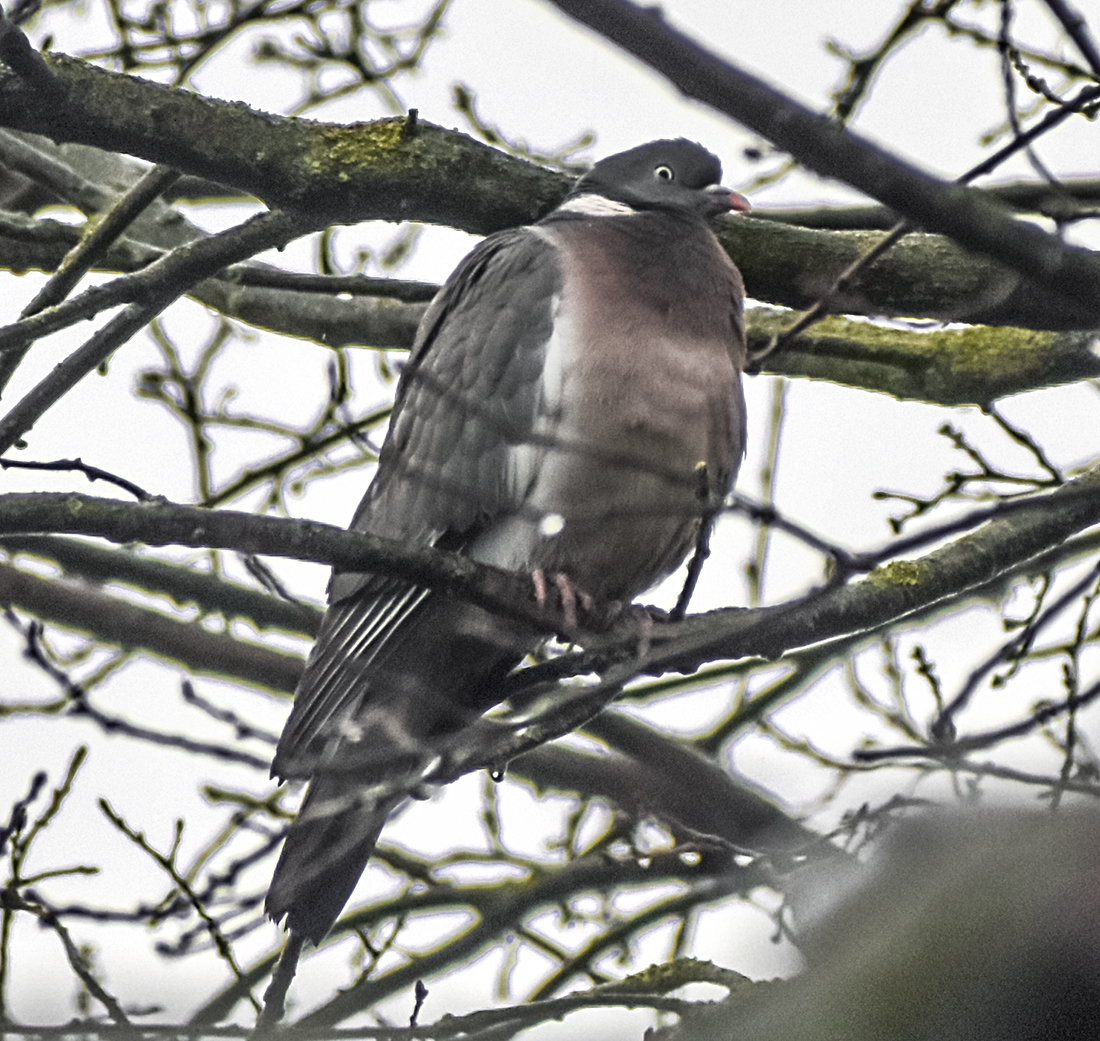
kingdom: Animalia
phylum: Chordata
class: Aves
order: Columbiformes
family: Columbidae
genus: Columba
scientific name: Columba palumbus
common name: Common wood pigeon
